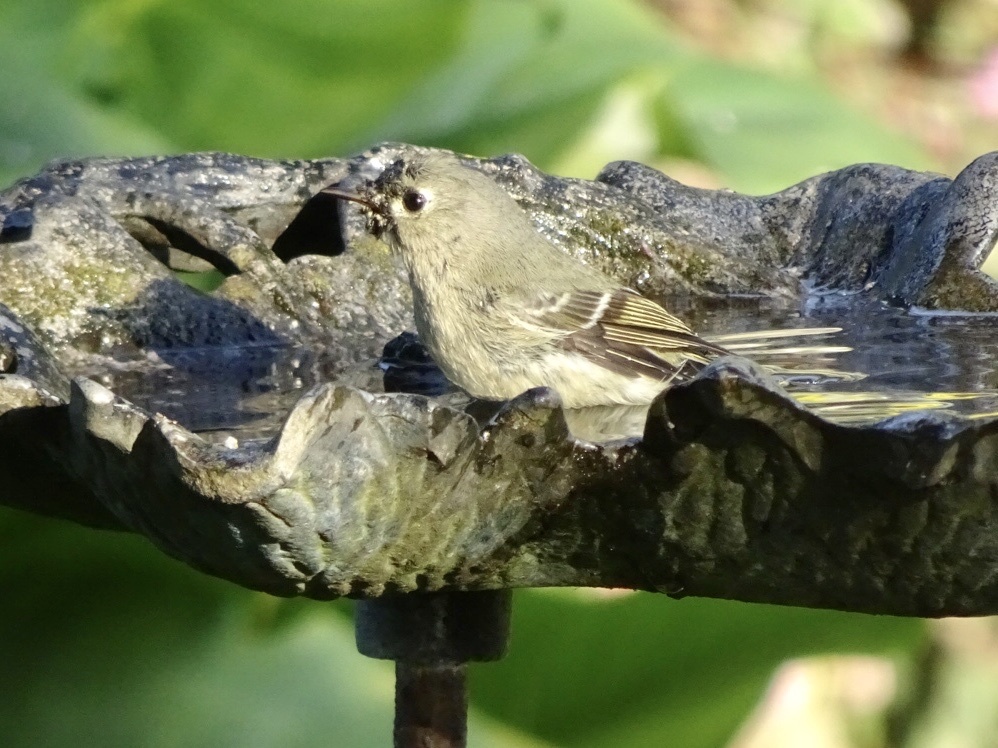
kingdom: Animalia
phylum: Chordata
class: Aves
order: Passeriformes
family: Regulidae
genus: Regulus
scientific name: Regulus calendula
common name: Ruby-crowned kinglet
